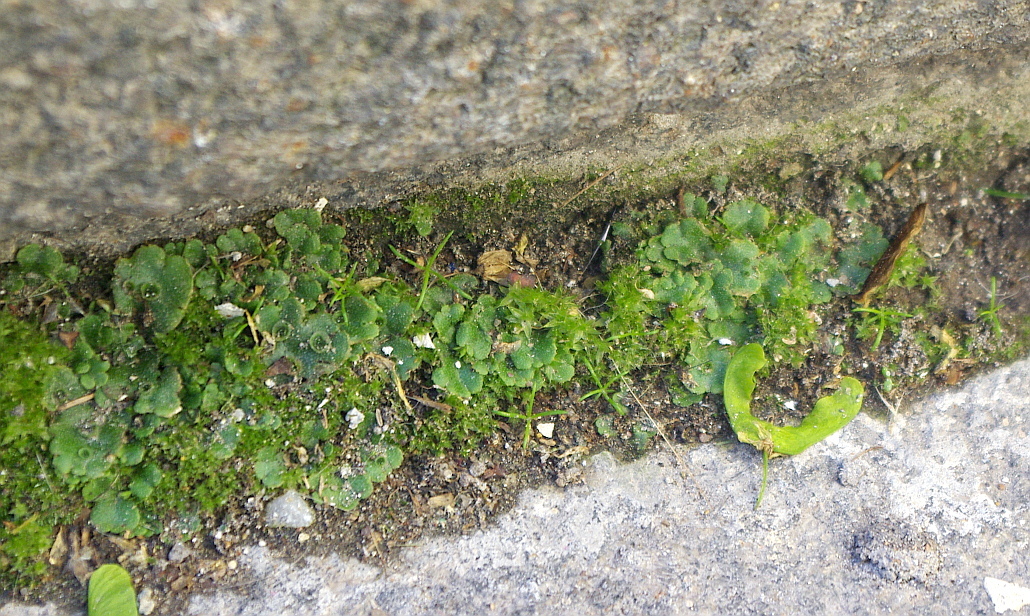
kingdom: Plantae
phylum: Marchantiophyta
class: Marchantiopsida
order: Marchantiales
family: Marchantiaceae
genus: Marchantia
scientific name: Marchantia polymorpha
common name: Common liverwort
